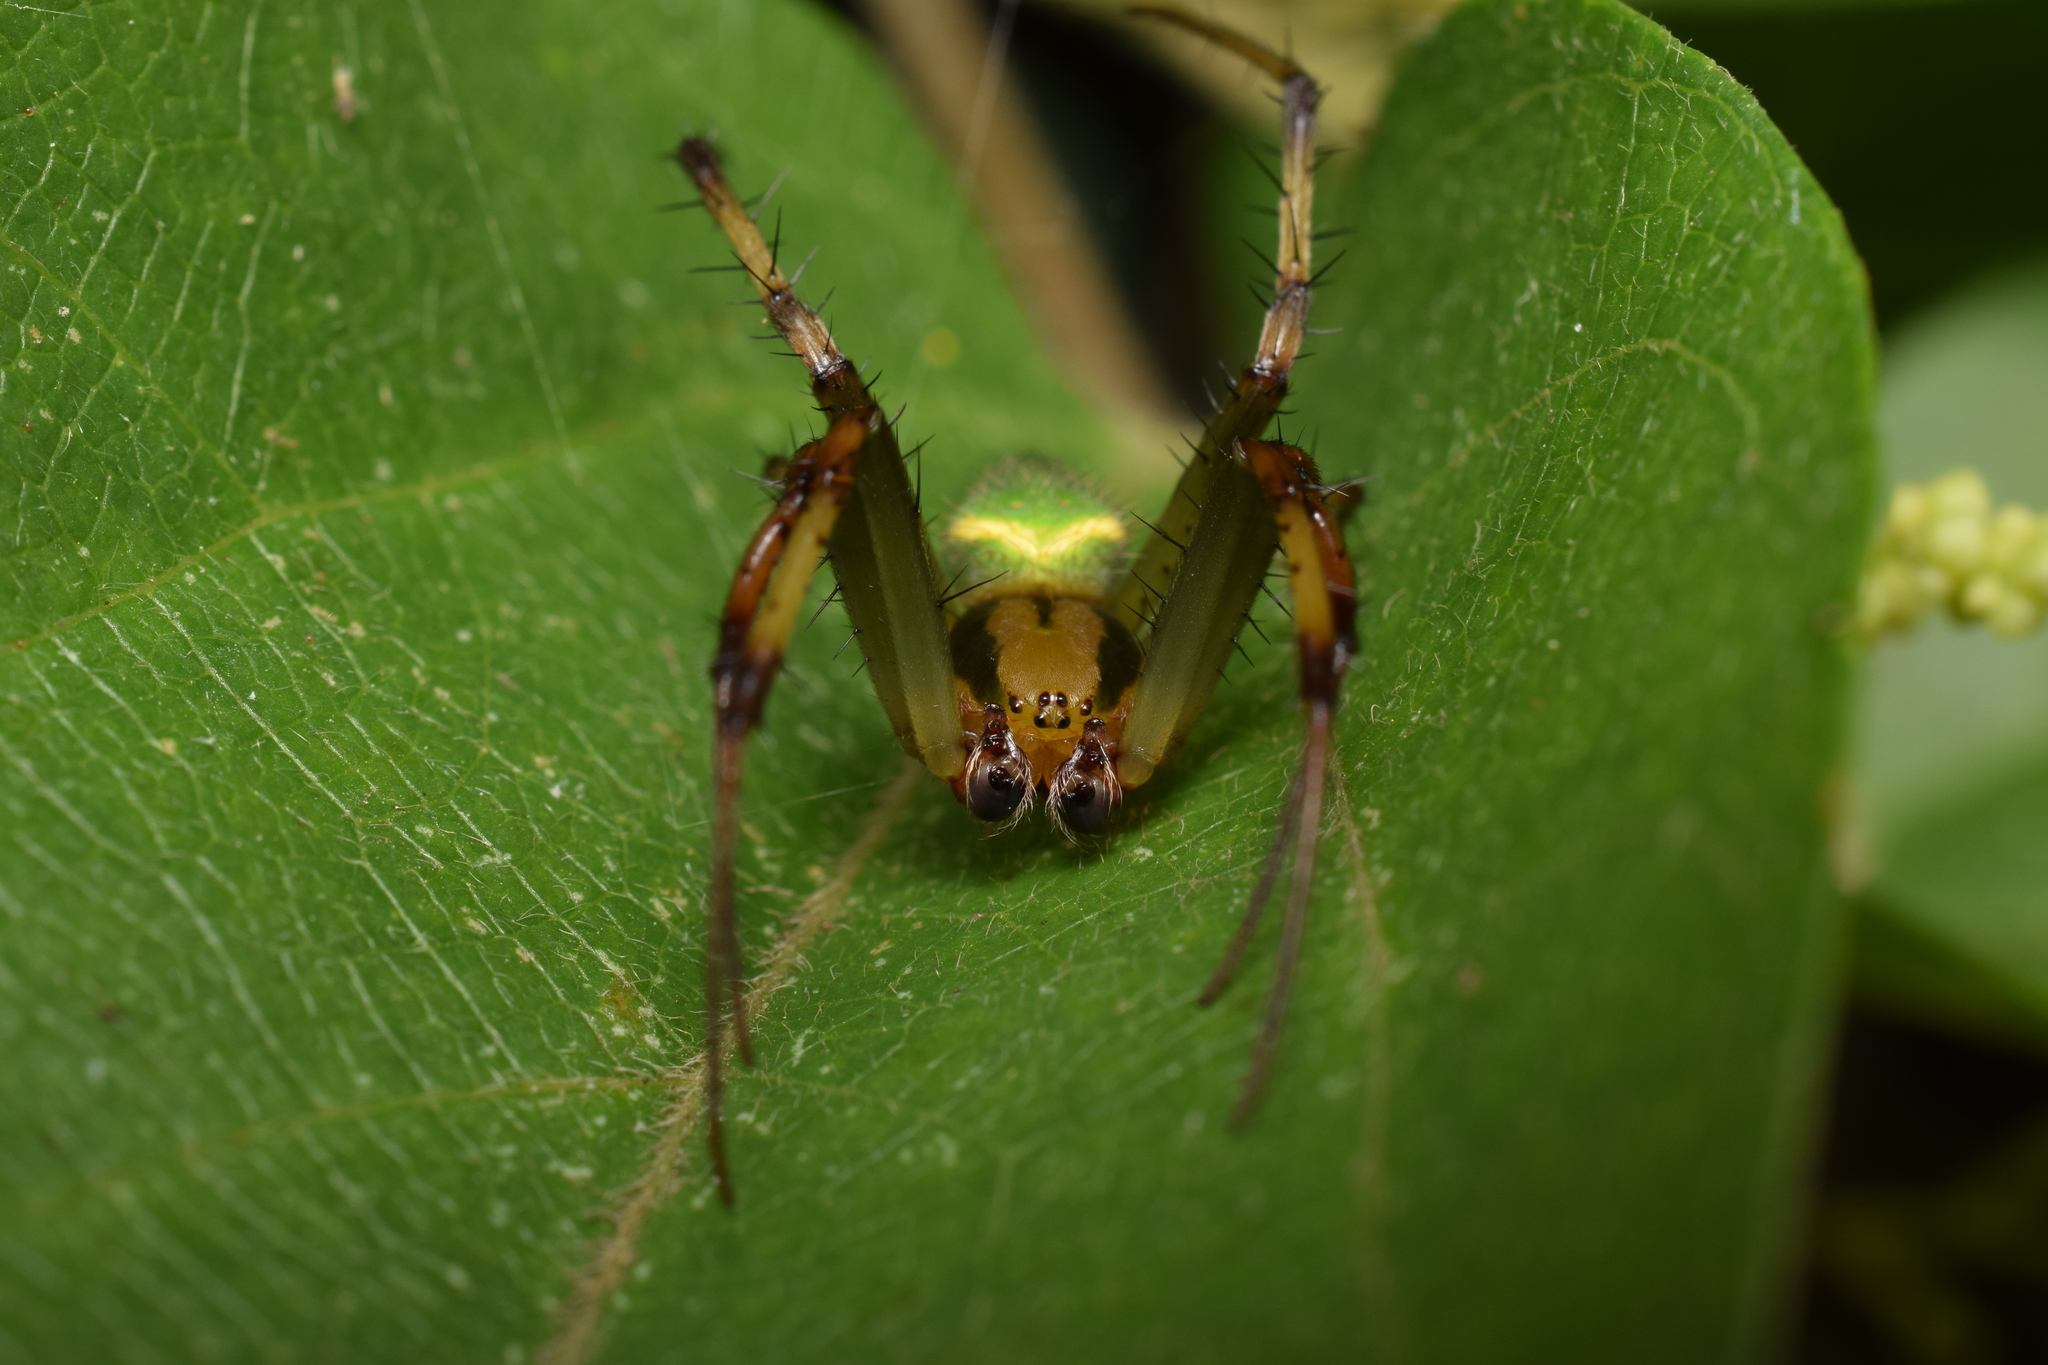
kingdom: Animalia
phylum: Arthropoda
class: Arachnida
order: Araneae
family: Araneidae
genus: Neoscona
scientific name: Neoscona scylloides
